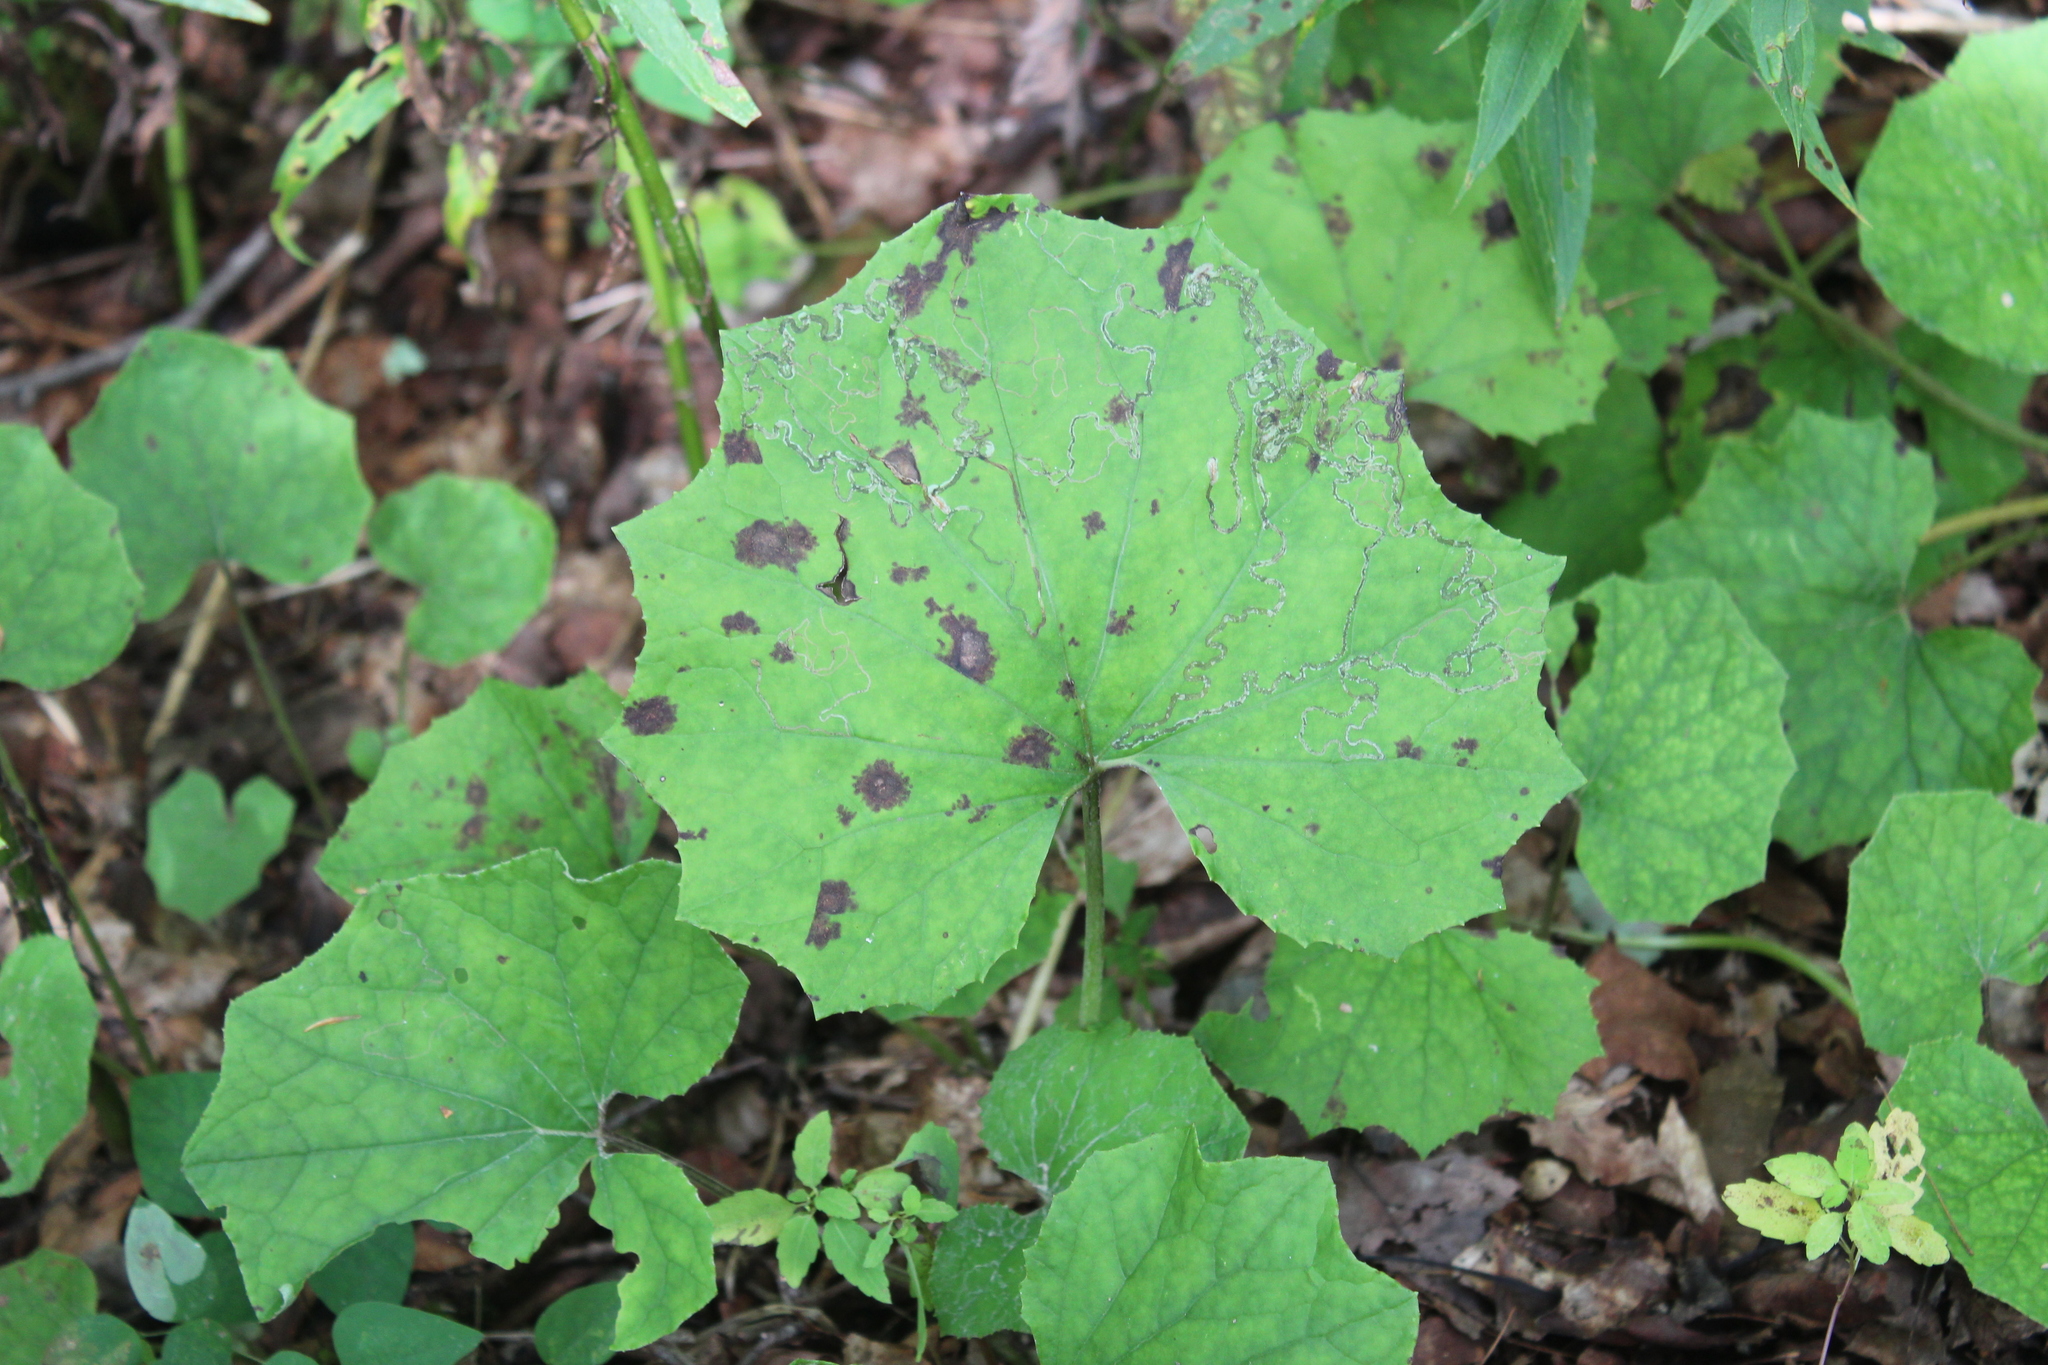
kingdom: Plantae
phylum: Tracheophyta
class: Magnoliopsida
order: Asterales
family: Asteraceae
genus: Tussilago
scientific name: Tussilago farfara
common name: Coltsfoot
